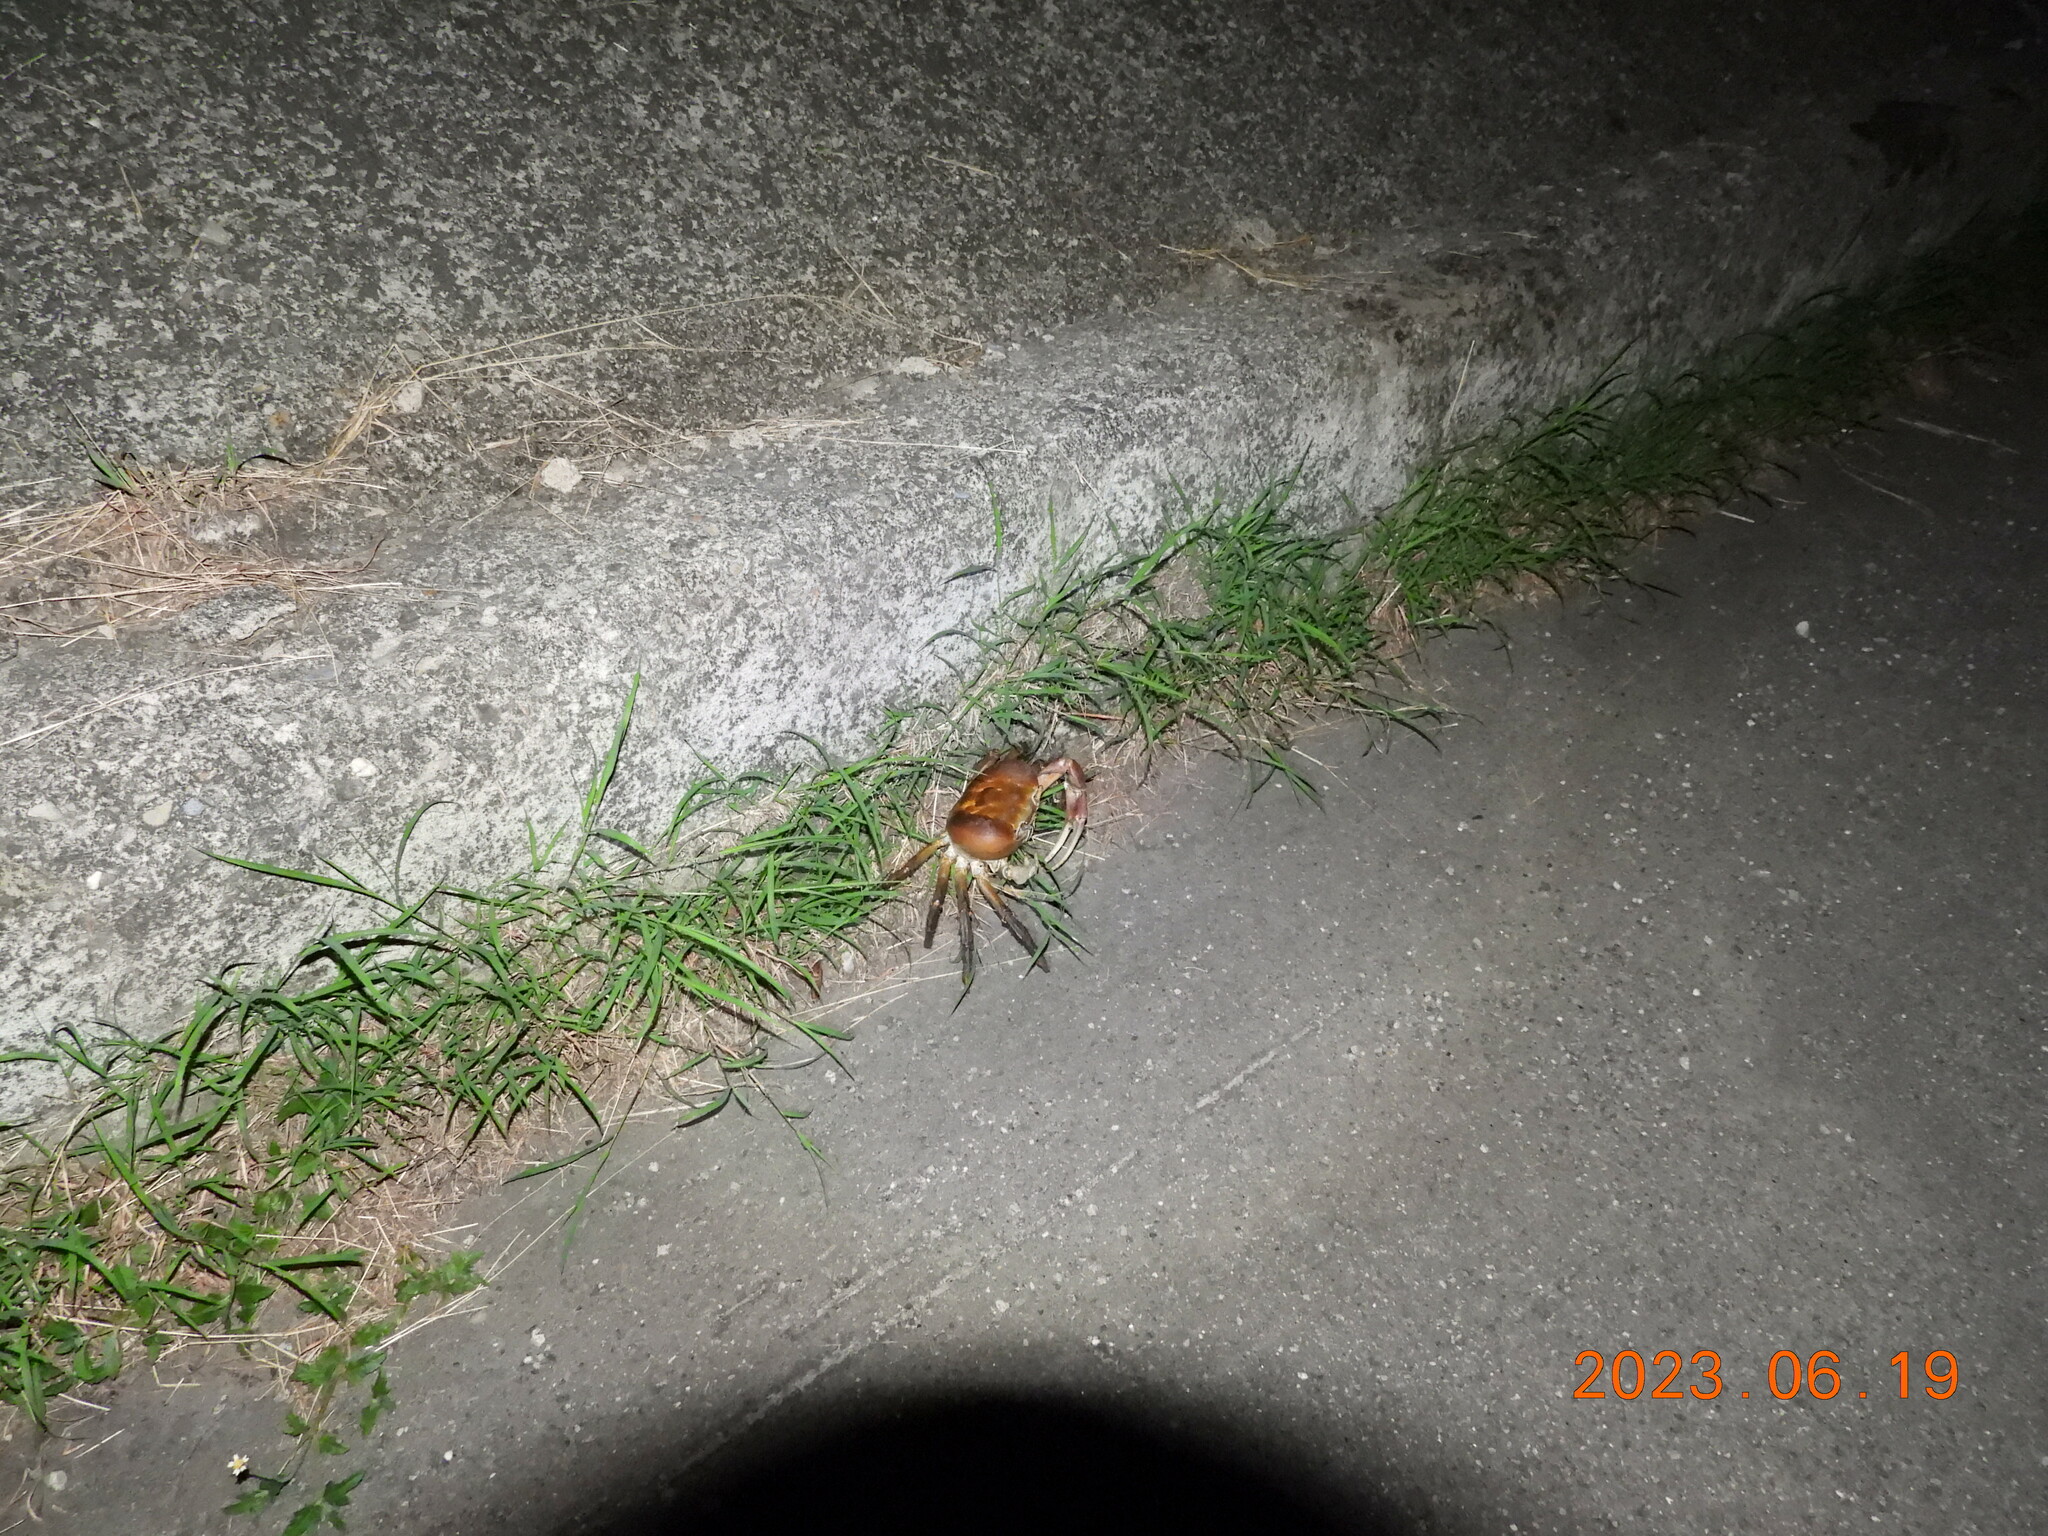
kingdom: Animalia
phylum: Arthropoda
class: Malacostraca
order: Decapoda
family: Gecarcinidae
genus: Cardisoma
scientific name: Cardisoma carnifex
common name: Brown land crab
